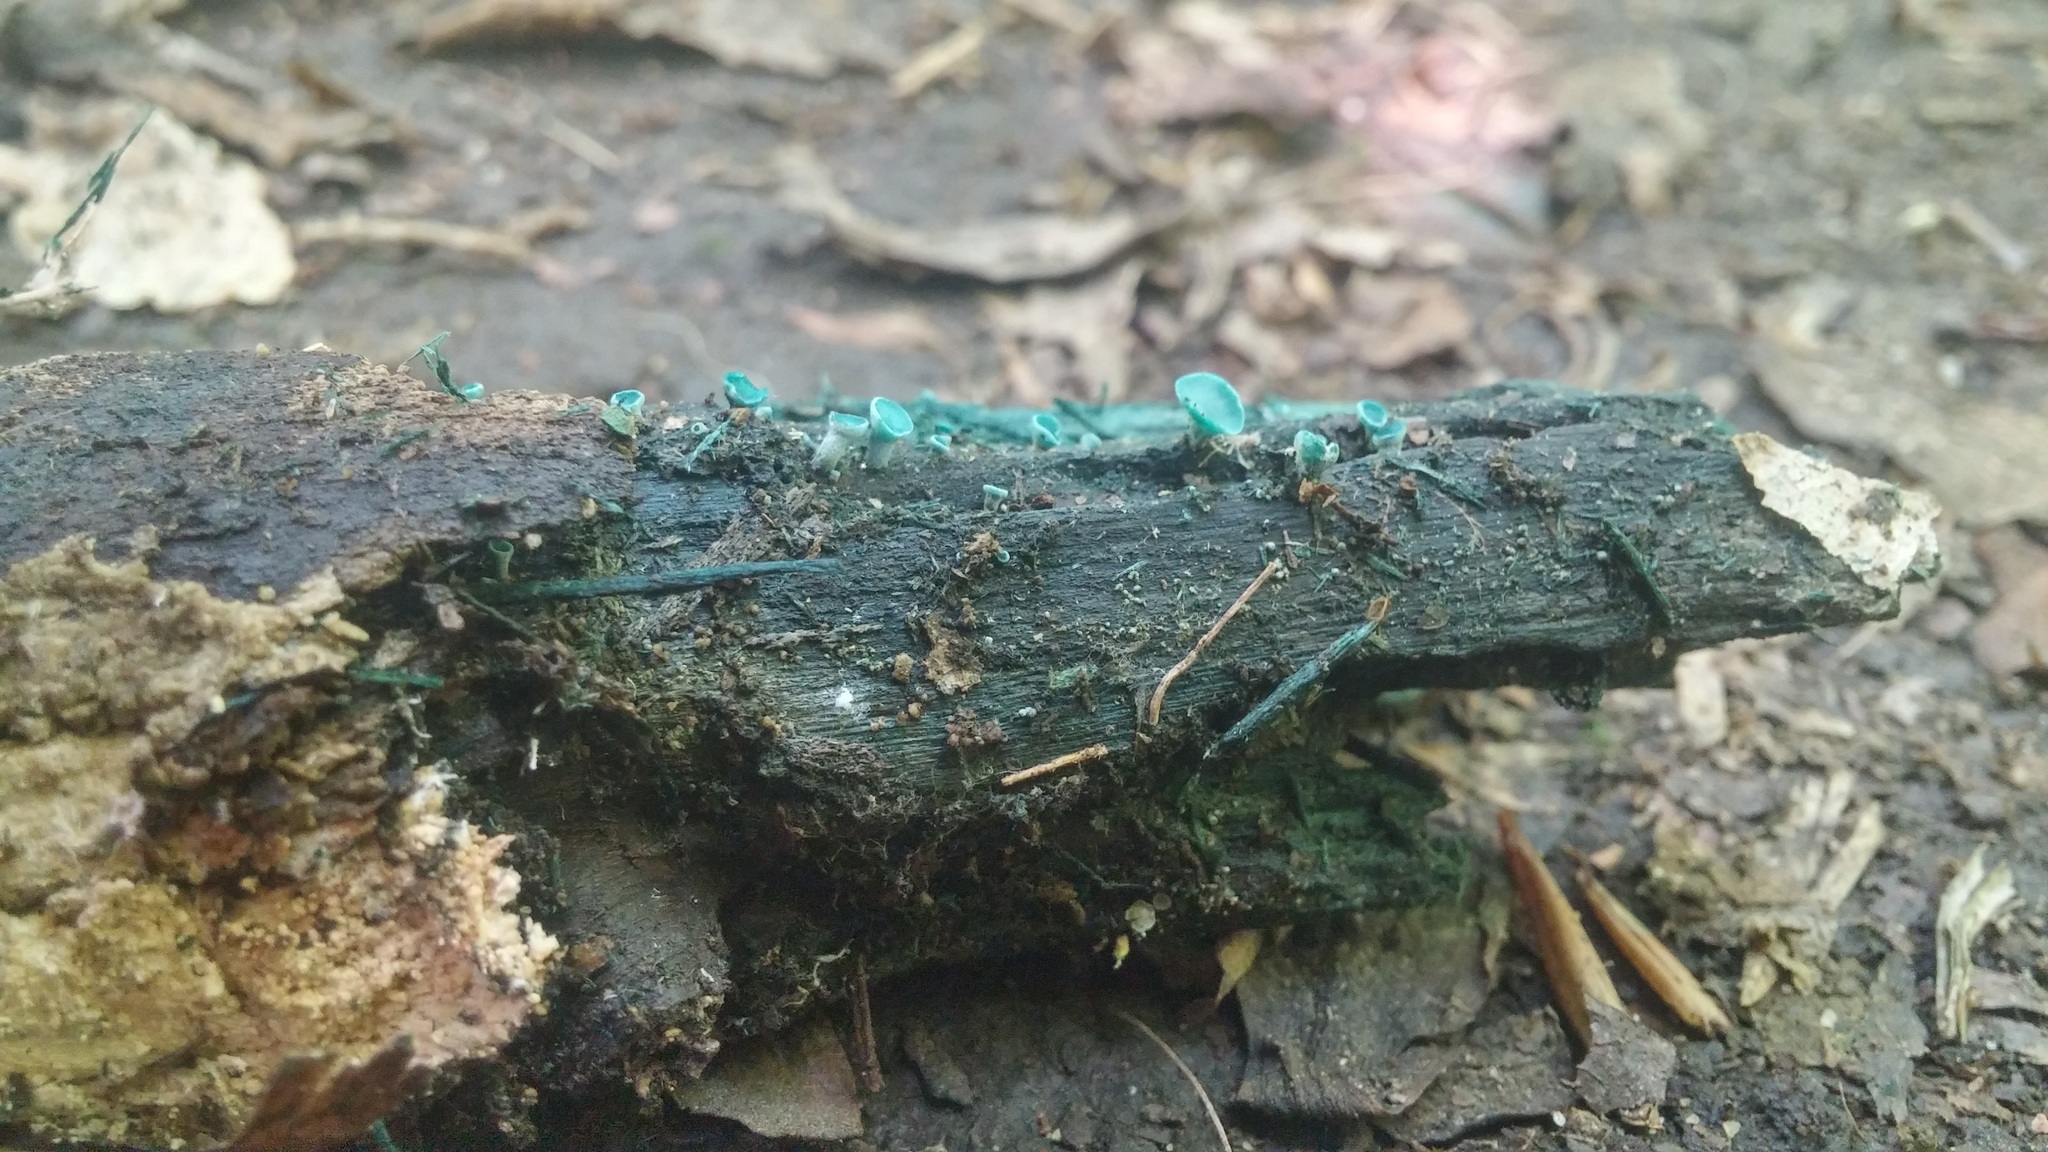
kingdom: Fungi
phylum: Ascomycota
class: Leotiomycetes
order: Helotiales
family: Chlorociboriaceae
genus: Chlorociboria
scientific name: Chlorociboria aeruginascens
